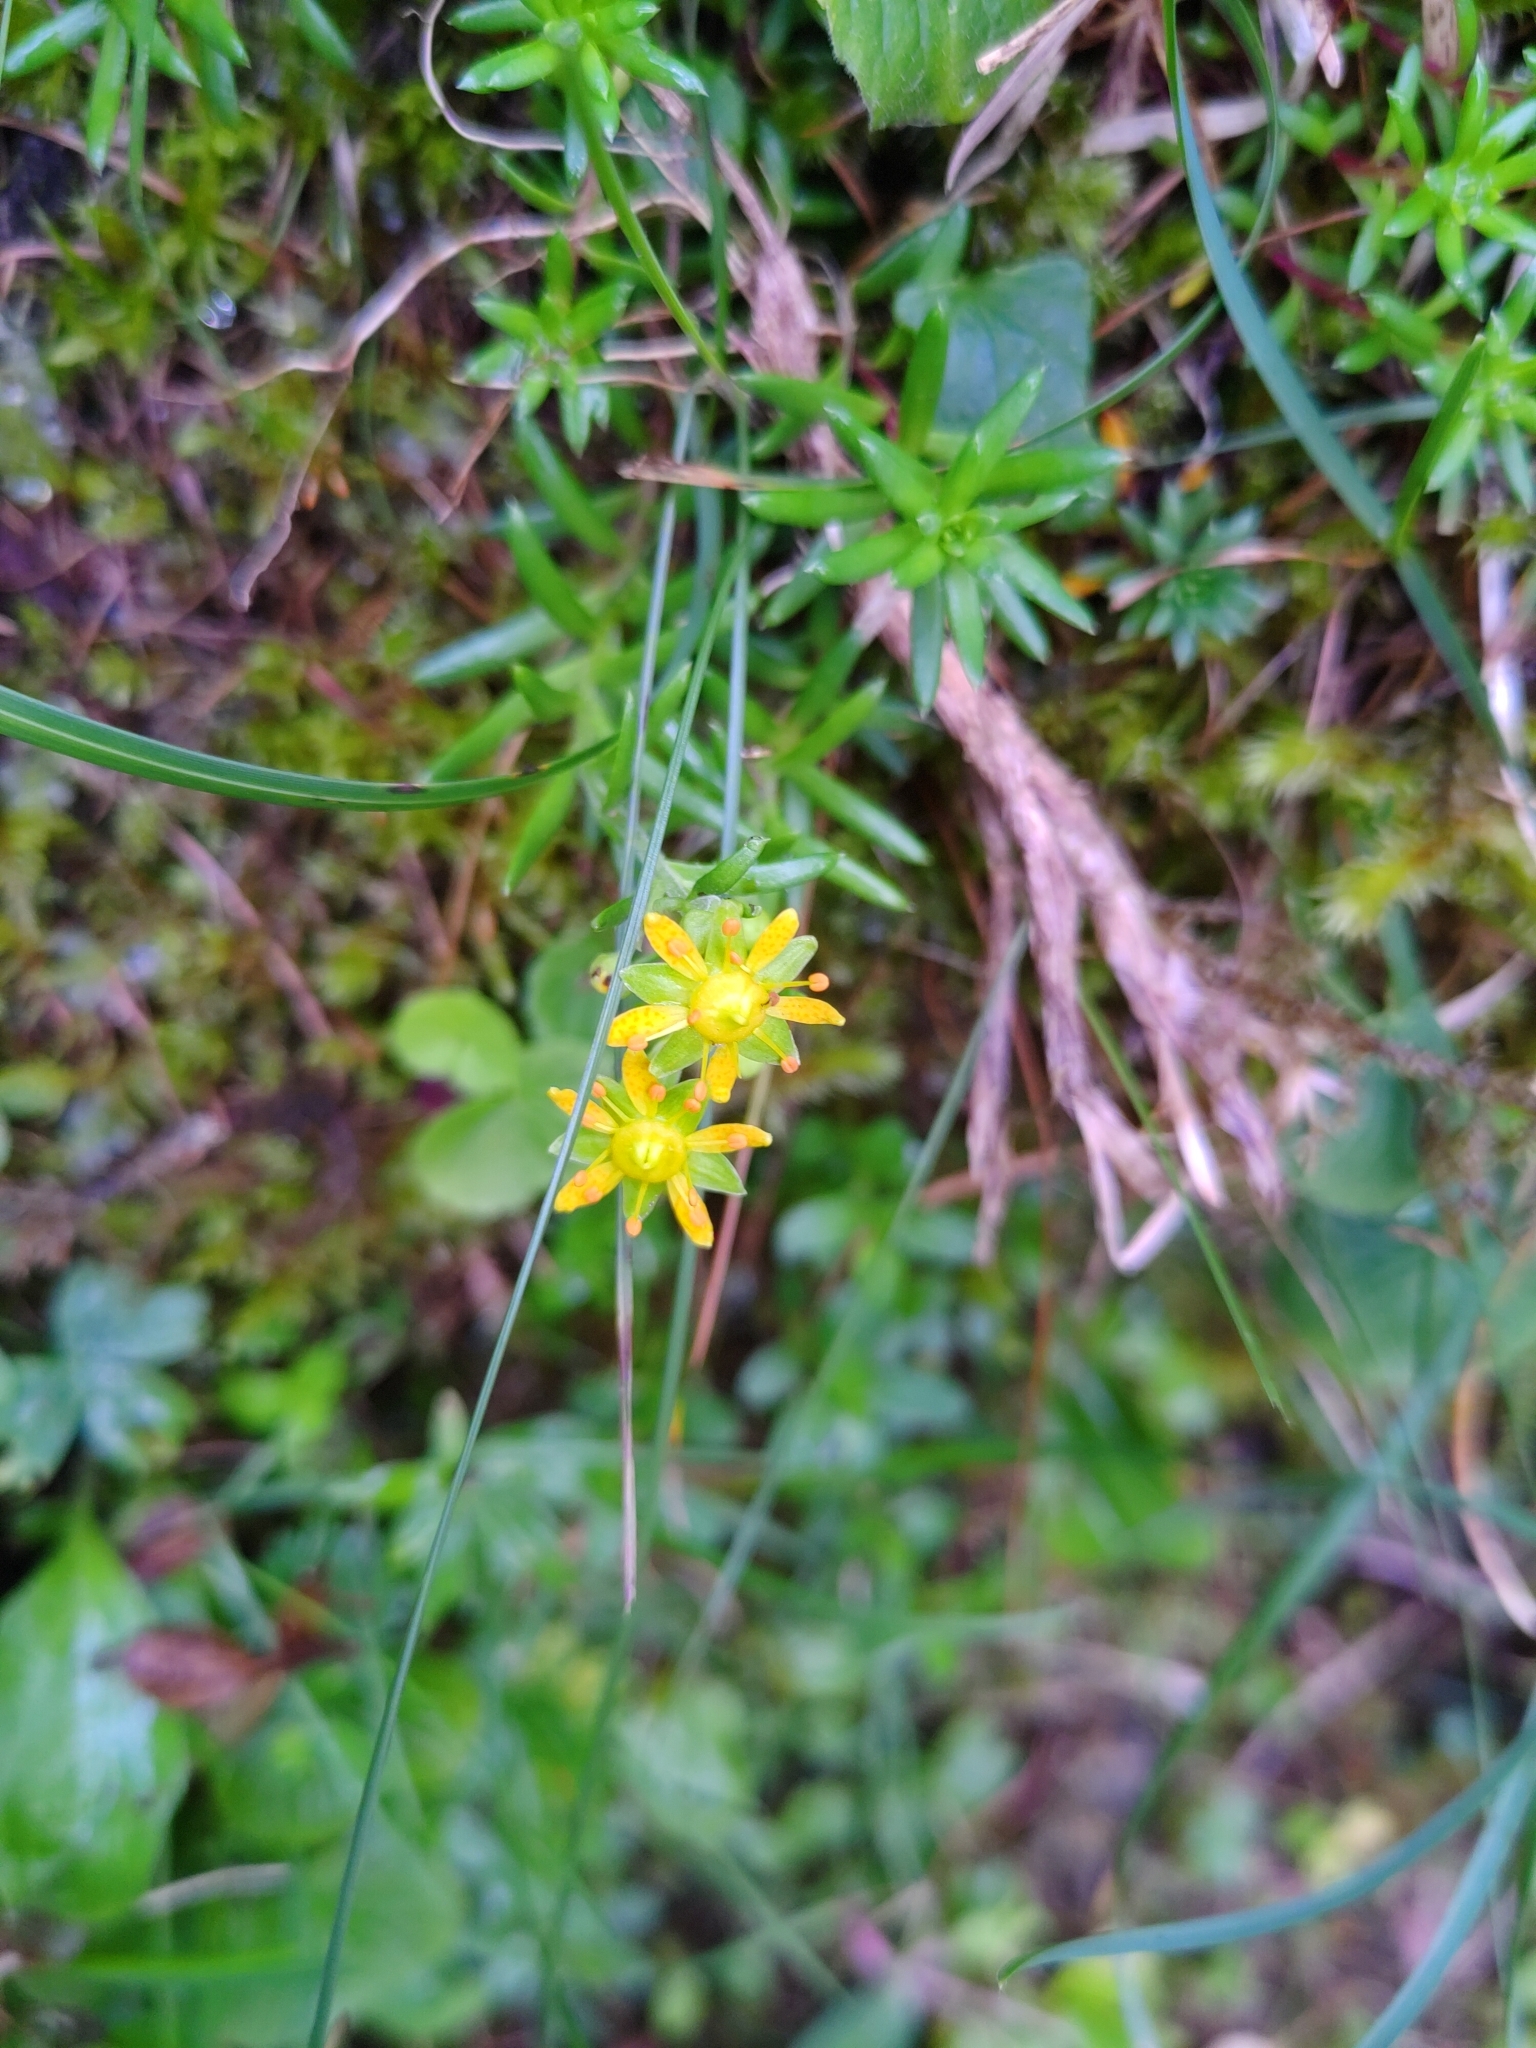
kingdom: Plantae
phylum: Tracheophyta
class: Magnoliopsida
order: Saxifragales
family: Saxifragaceae
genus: Saxifraga
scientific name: Saxifraga aizoides
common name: Yellow mountain saxifrage
